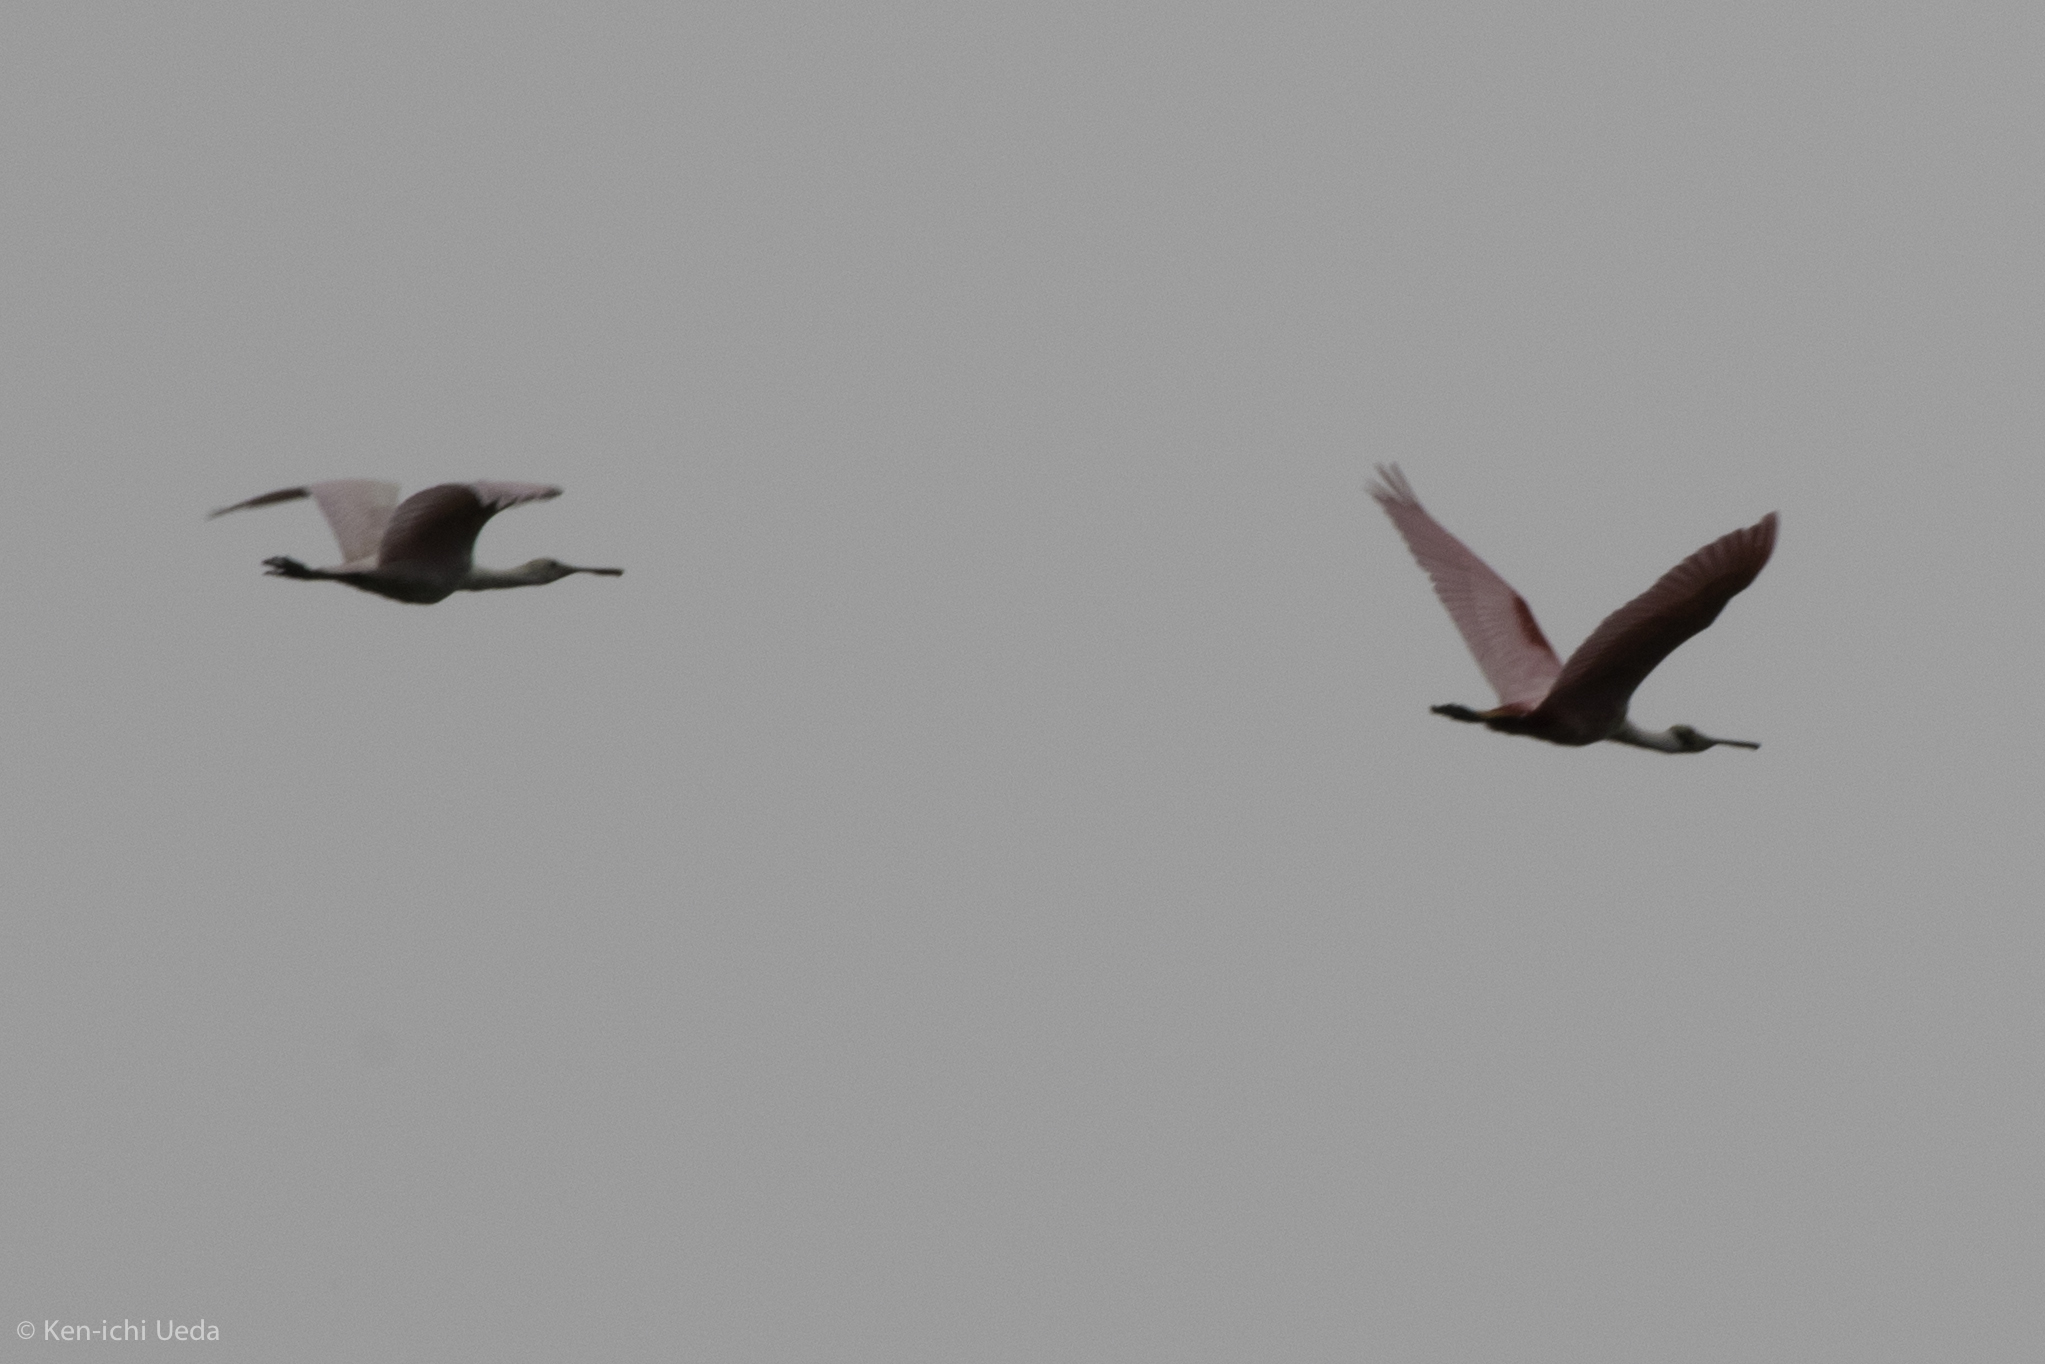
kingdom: Animalia
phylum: Chordata
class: Aves
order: Pelecaniformes
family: Threskiornithidae
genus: Platalea
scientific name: Platalea ajaja
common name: Roseate spoonbill
